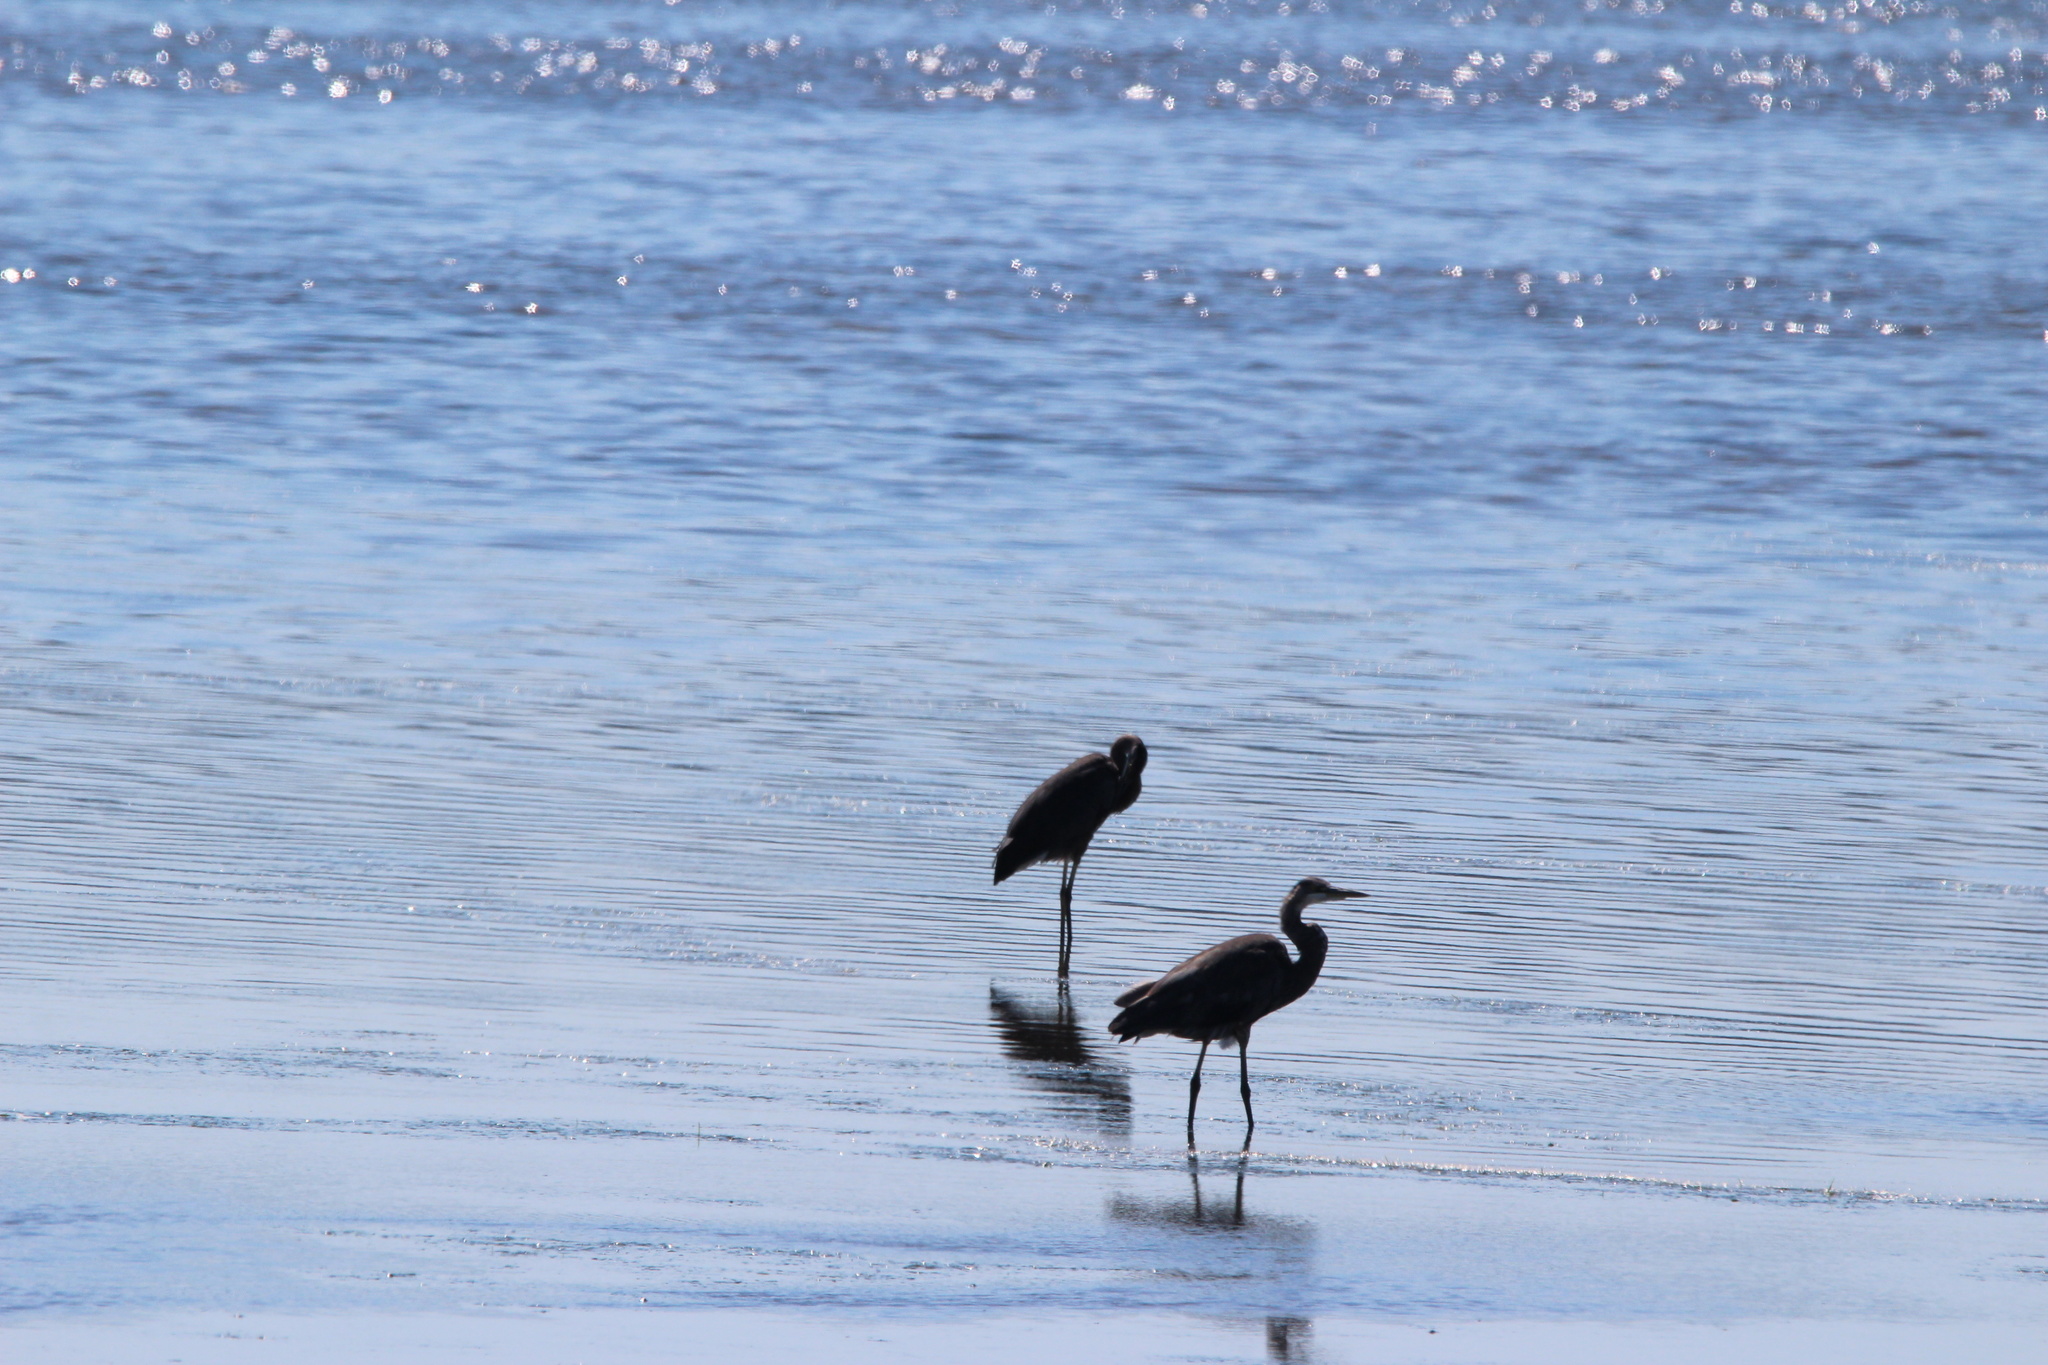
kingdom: Animalia
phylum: Chordata
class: Aves
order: Pelecaniformes
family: Ardeidae
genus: Ardea
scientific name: Ardea herodias
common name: Great blue heron
